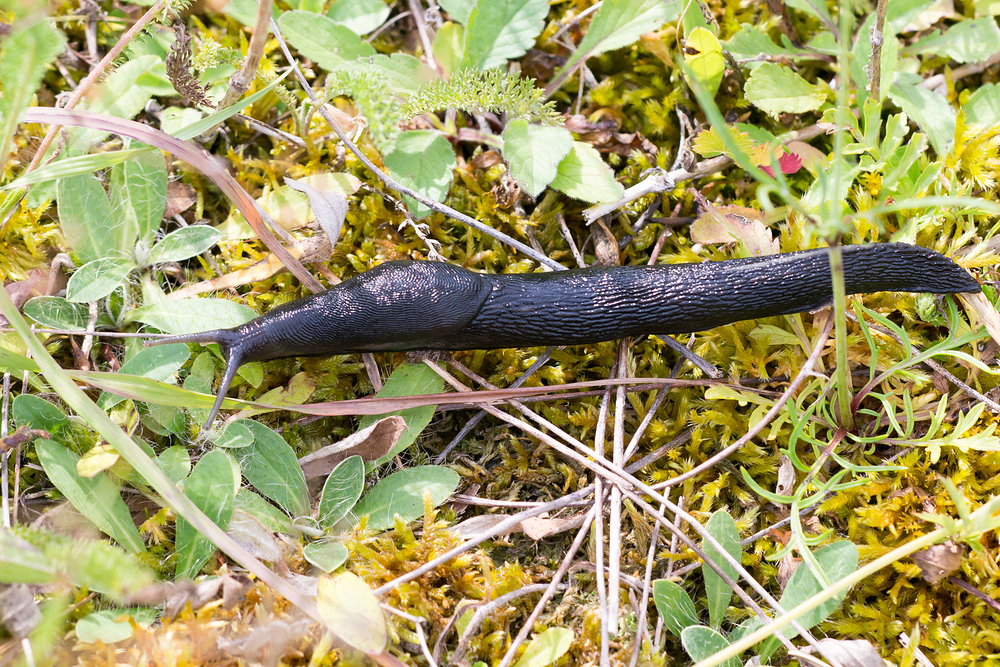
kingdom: Animalia
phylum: Mollusca
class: Gastropoda
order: Stylommatophora
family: Limacidae
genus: Limax
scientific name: Limax cinereoniger
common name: Ash-black slug
